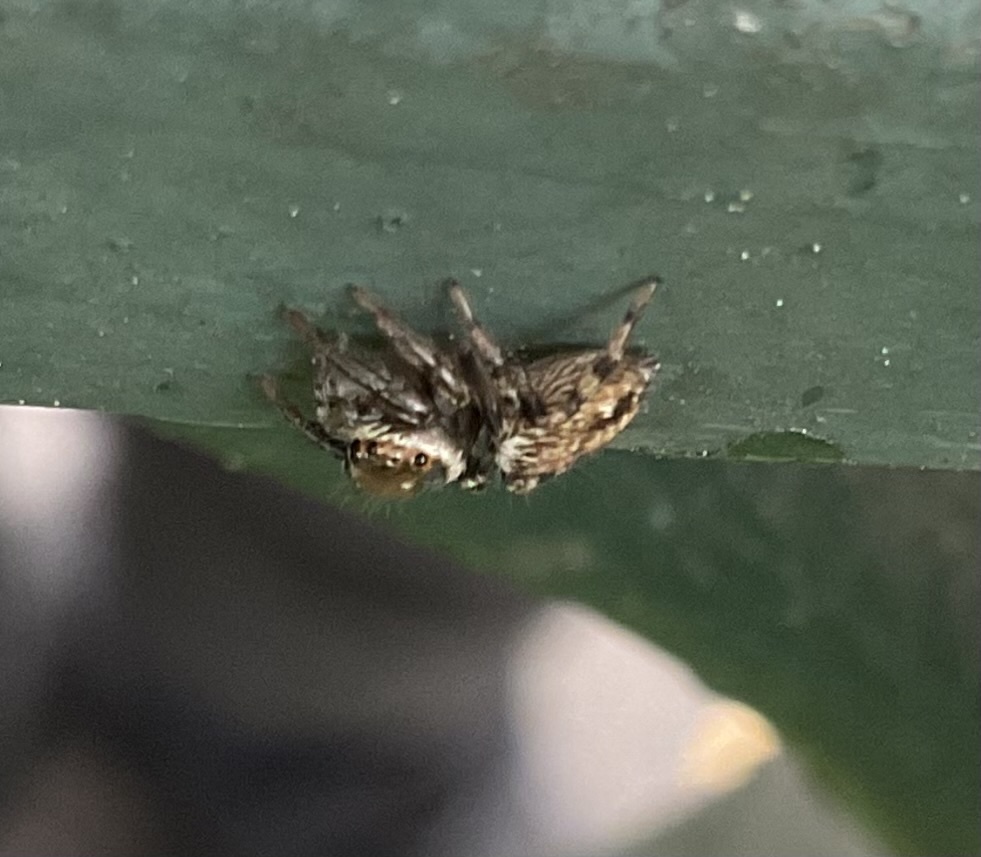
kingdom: Animalia
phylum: Arthropoda
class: Arachnida
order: Araneae
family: Salticidae
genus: Hasarius
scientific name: Hasarius adansoni
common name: Jumping spider
